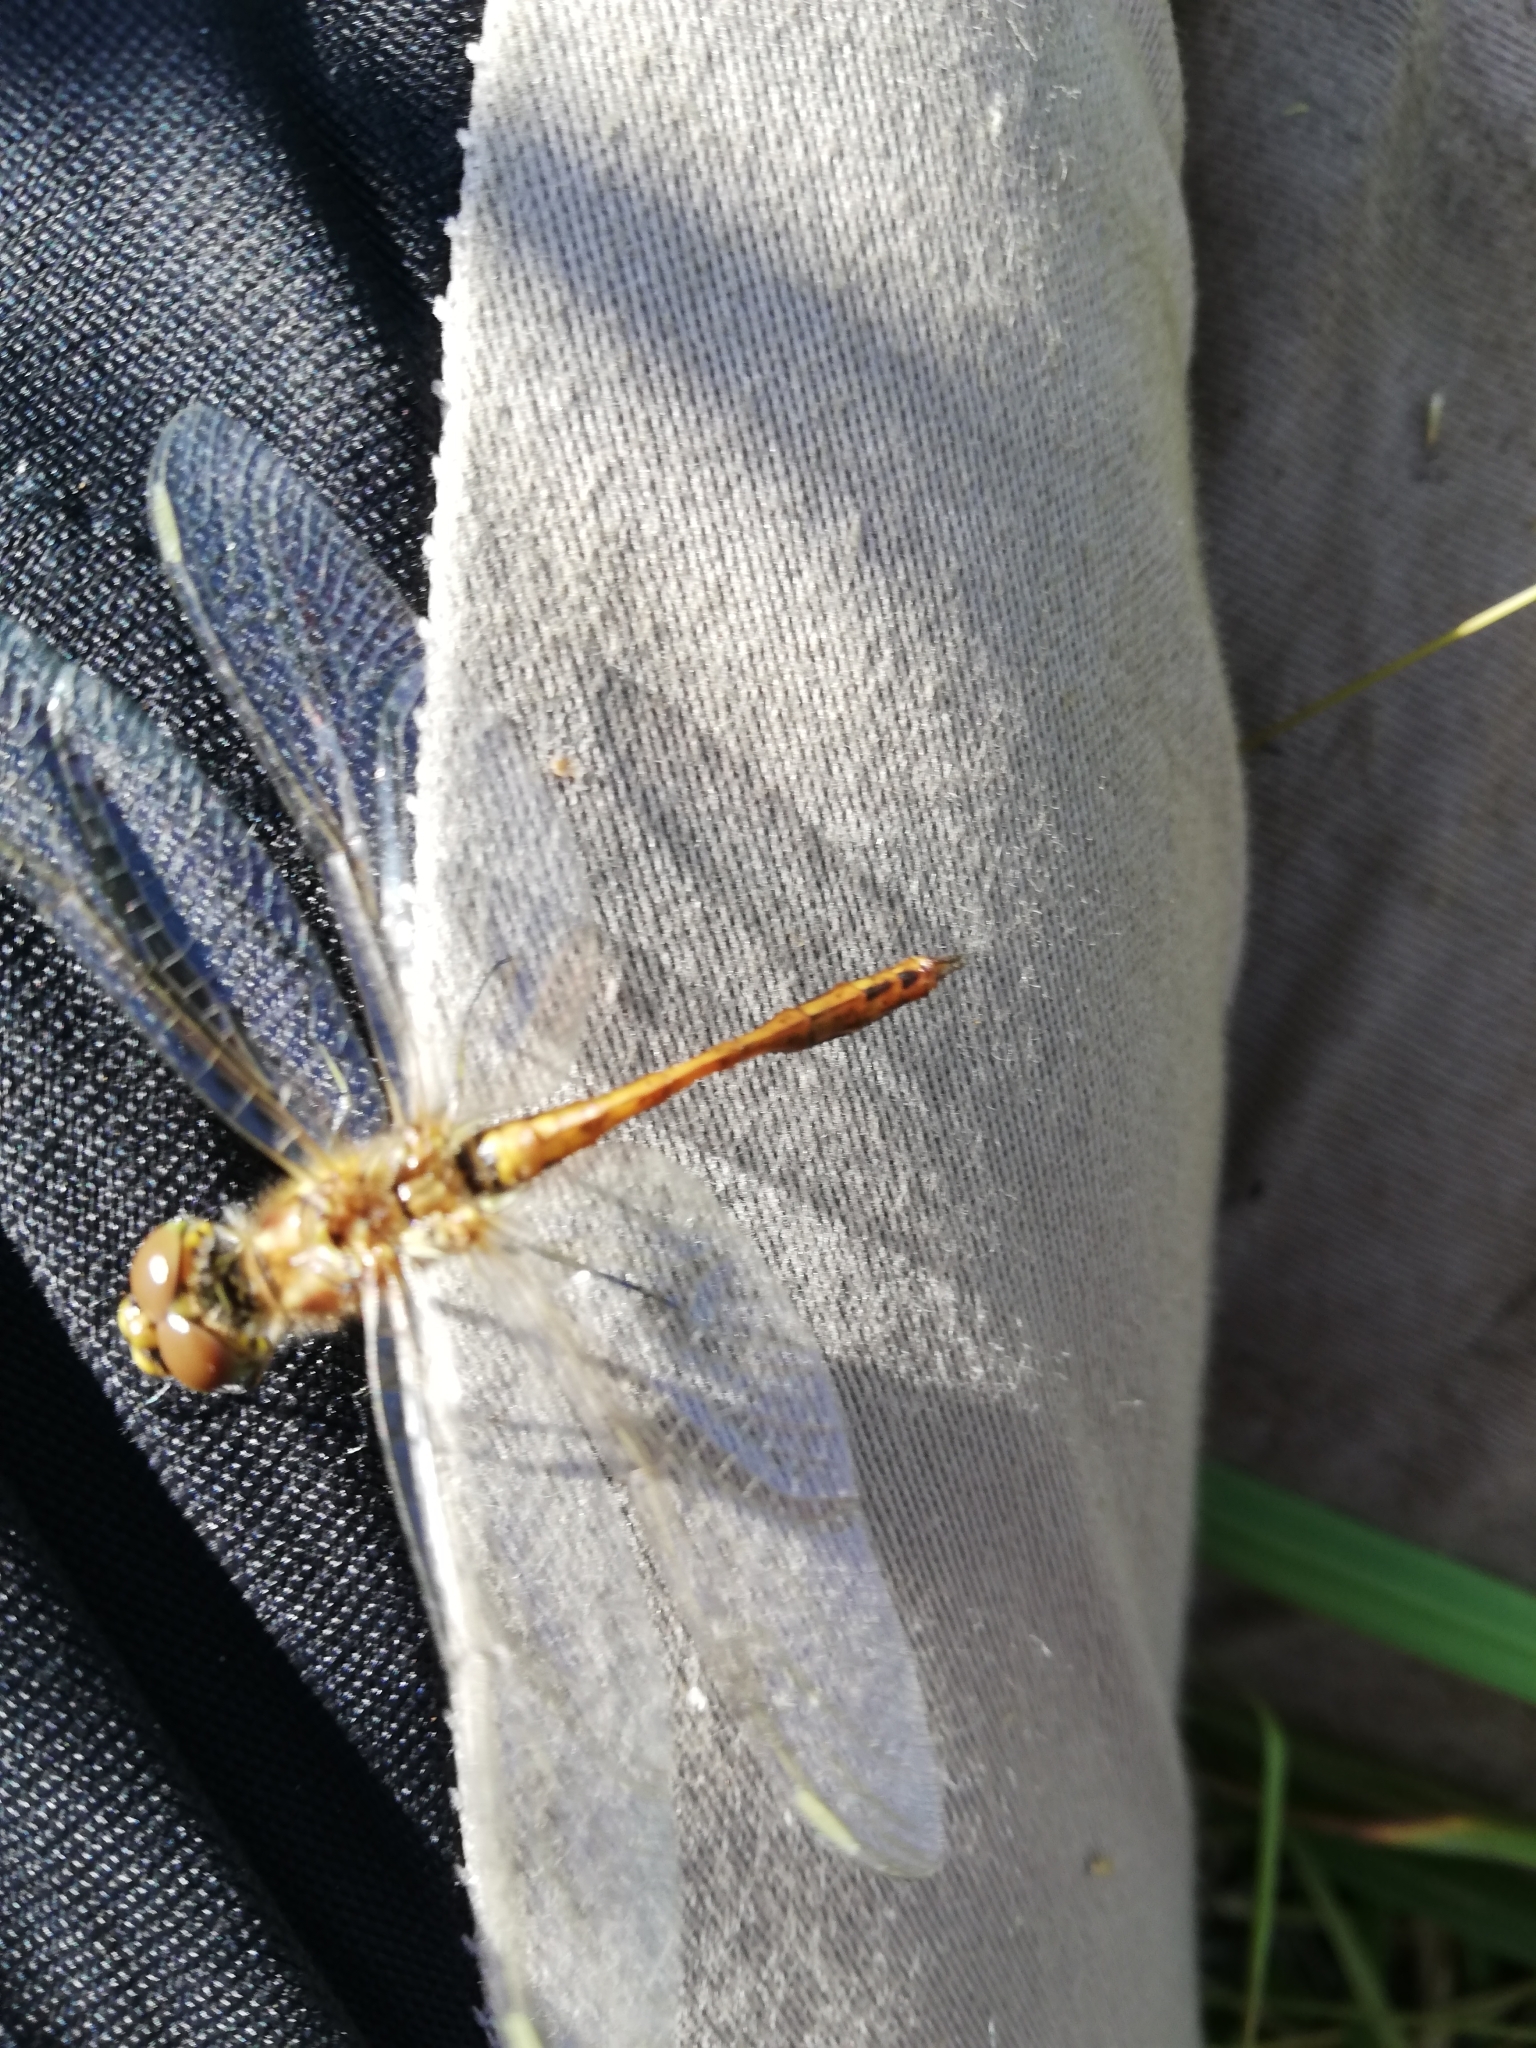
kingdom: Animalia
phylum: Arthropoda
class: Insecta
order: Odonata
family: Libellulidae
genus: Sympetrum
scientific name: Sympetrum vulgatum
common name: Vagrant darter
